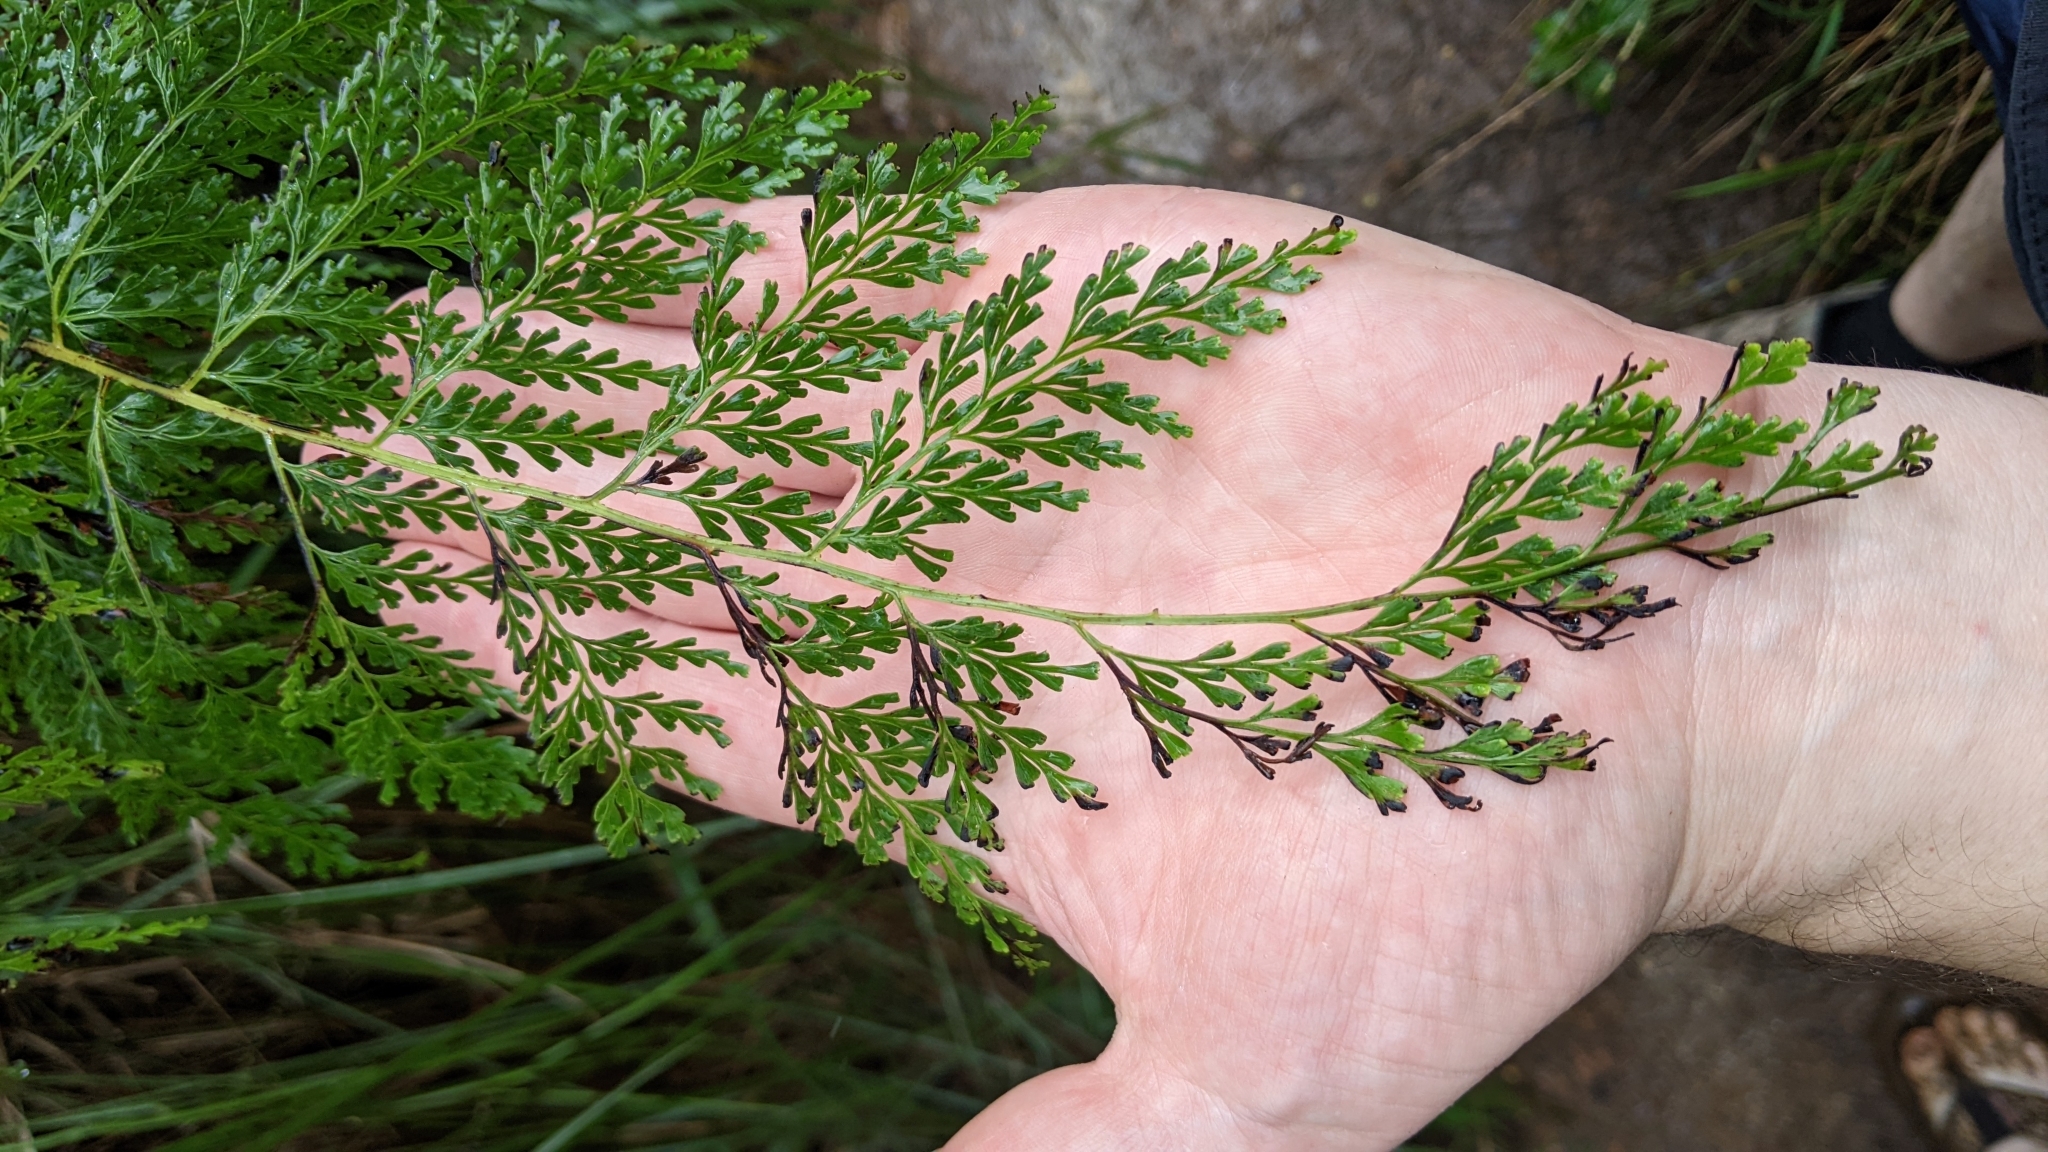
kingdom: Plantae
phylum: Tracheophyta
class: Polypodiopsida
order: Polypodiales
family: Lindsaeaceae
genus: Odontosoria
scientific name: Odontosoria chinensis
